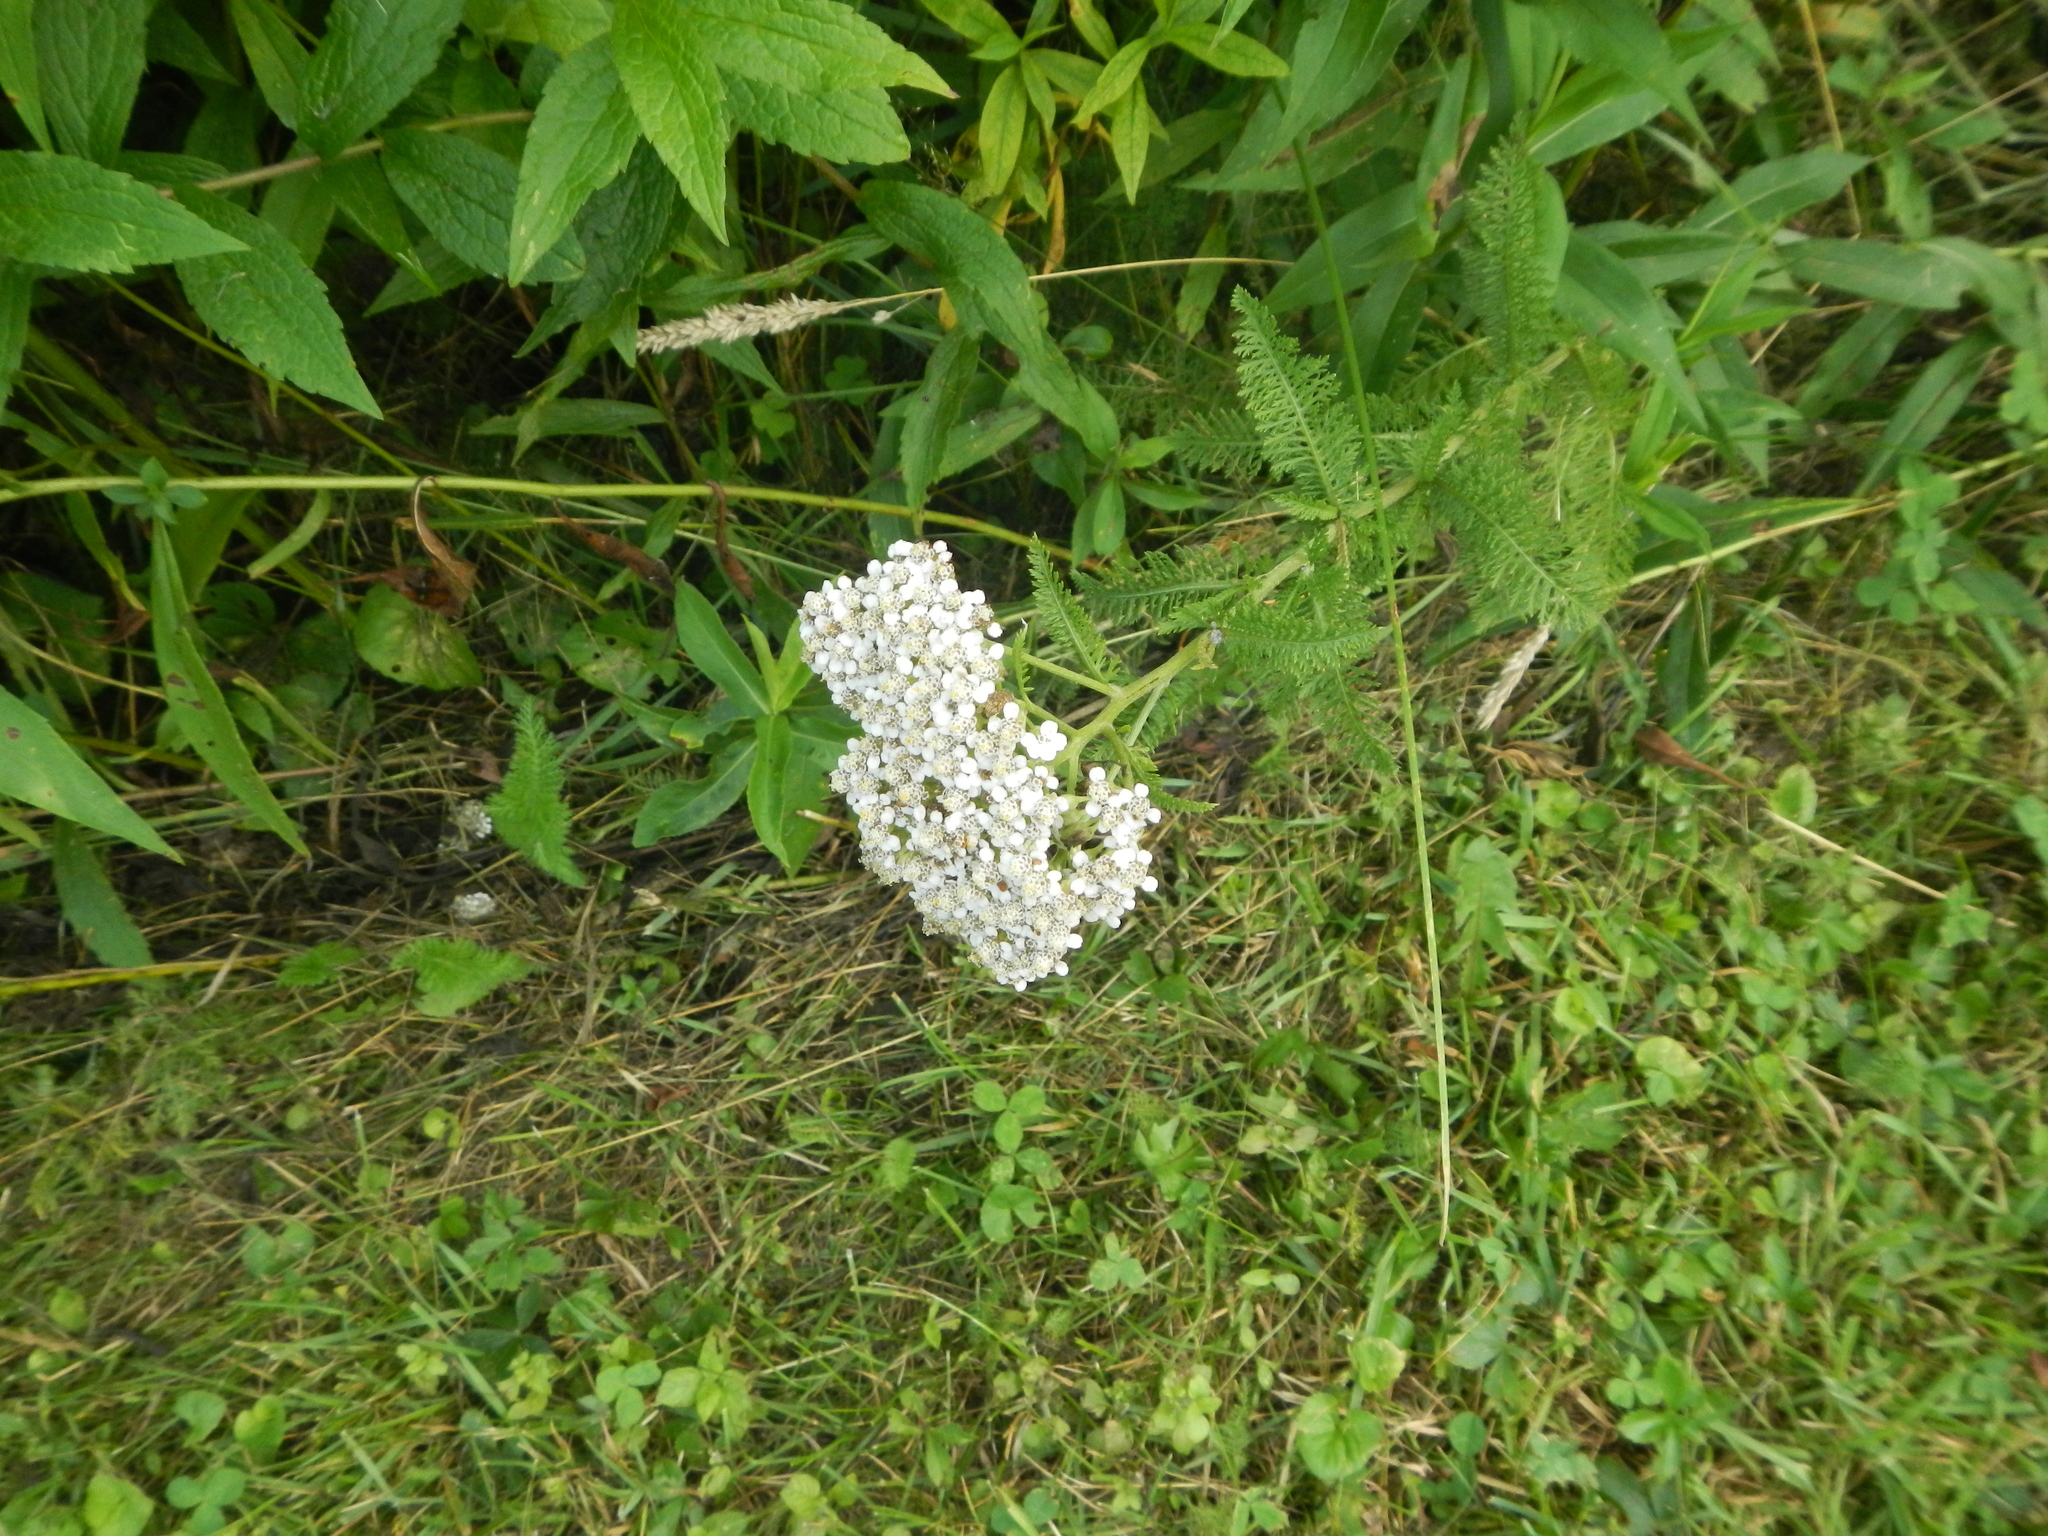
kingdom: Plantae
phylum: Tracheophyta
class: Magnoliopsida
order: Asterales
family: Asteraceae
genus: Achillea
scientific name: Achillea millefolium
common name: Yarrow
